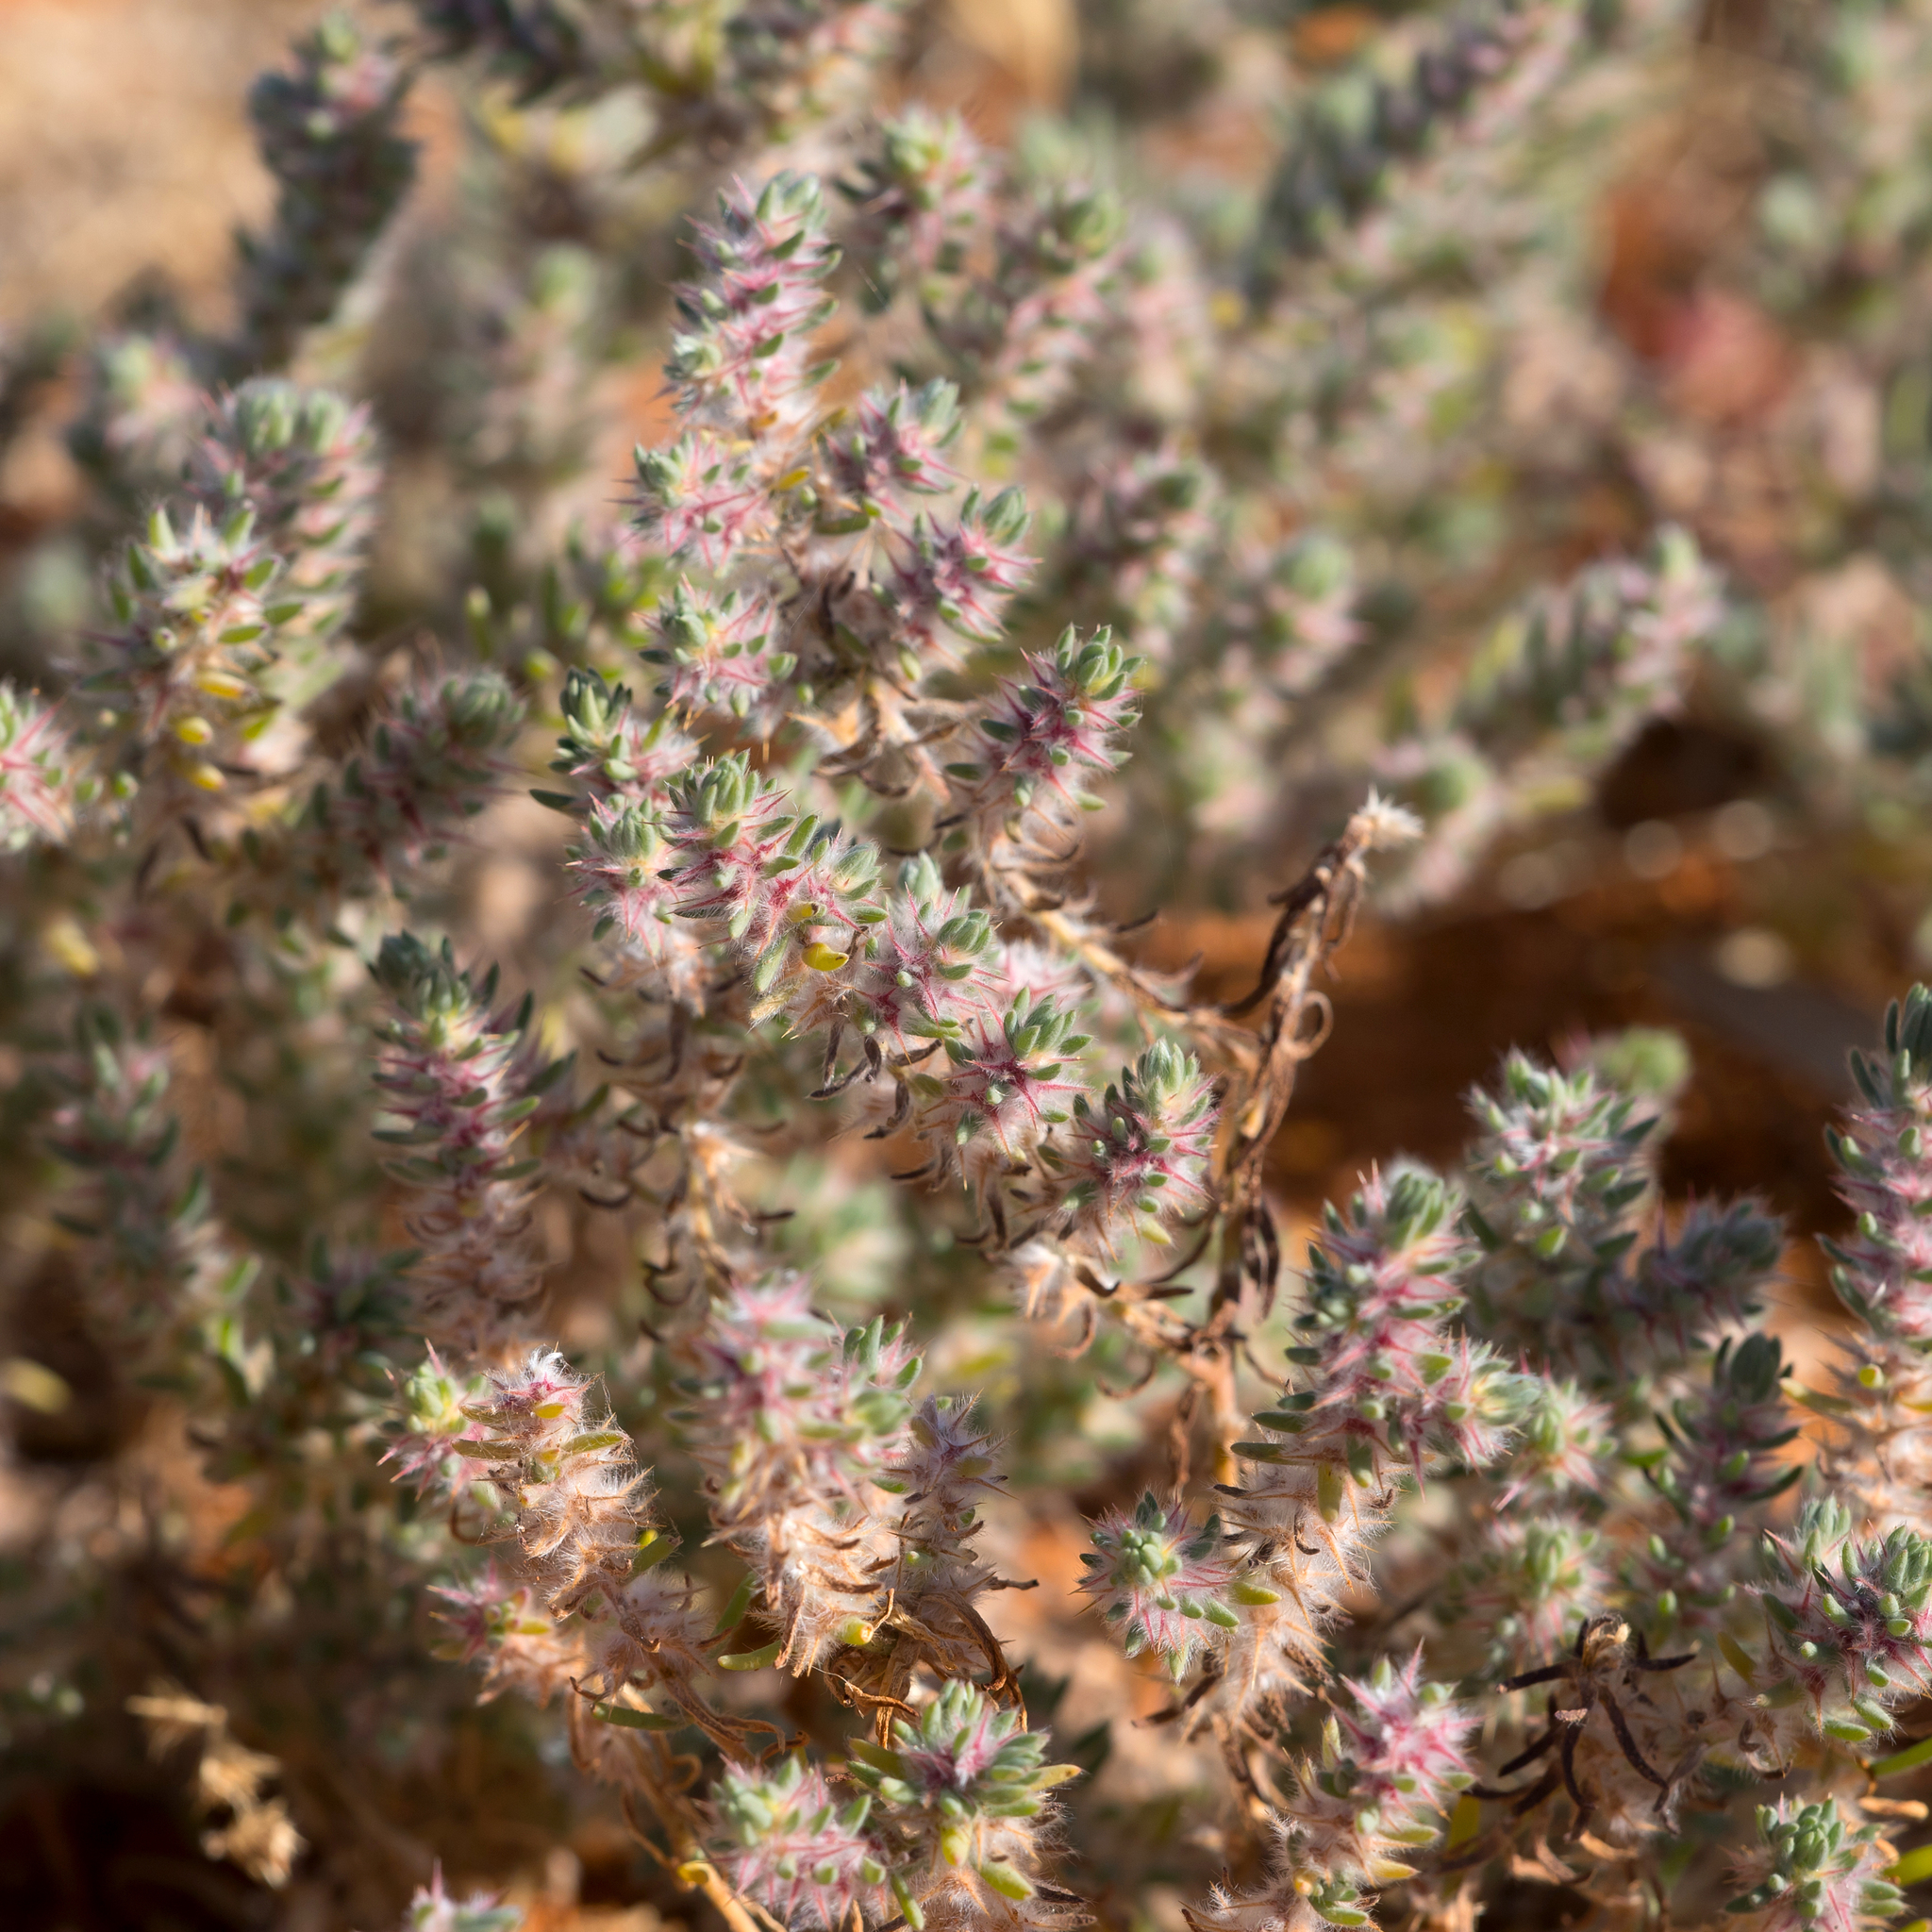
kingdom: Plantae
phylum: Tracheophyta
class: Magnoliopsida
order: Caryophyllales
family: Amaranthaceae
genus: Sclerolaena
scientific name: Sclerolaena lanicuspis
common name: Copperbur
